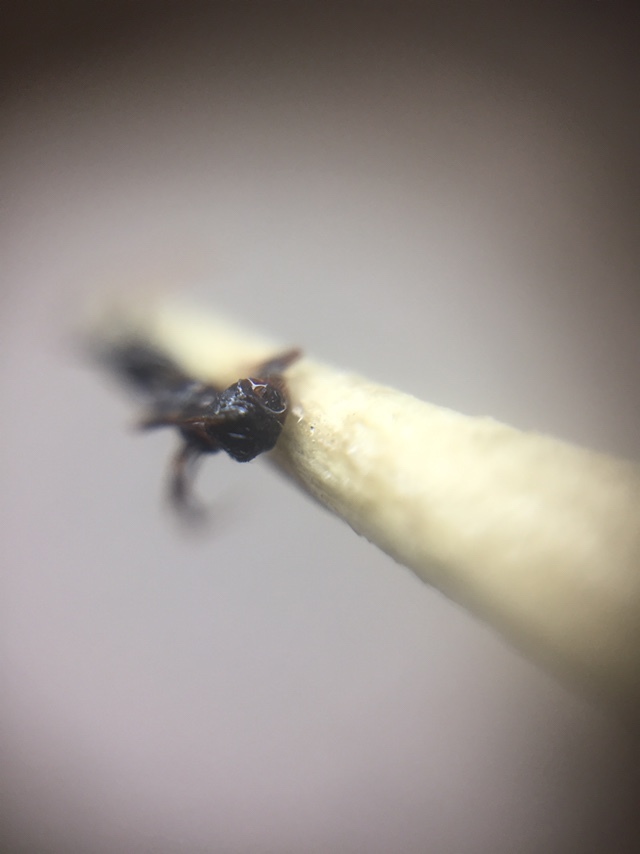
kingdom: Animalia
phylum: Arthropoda
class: Insecta
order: Hymenoptera
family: Formicidae
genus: Pheidole
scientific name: Pheidole wroughtonii
